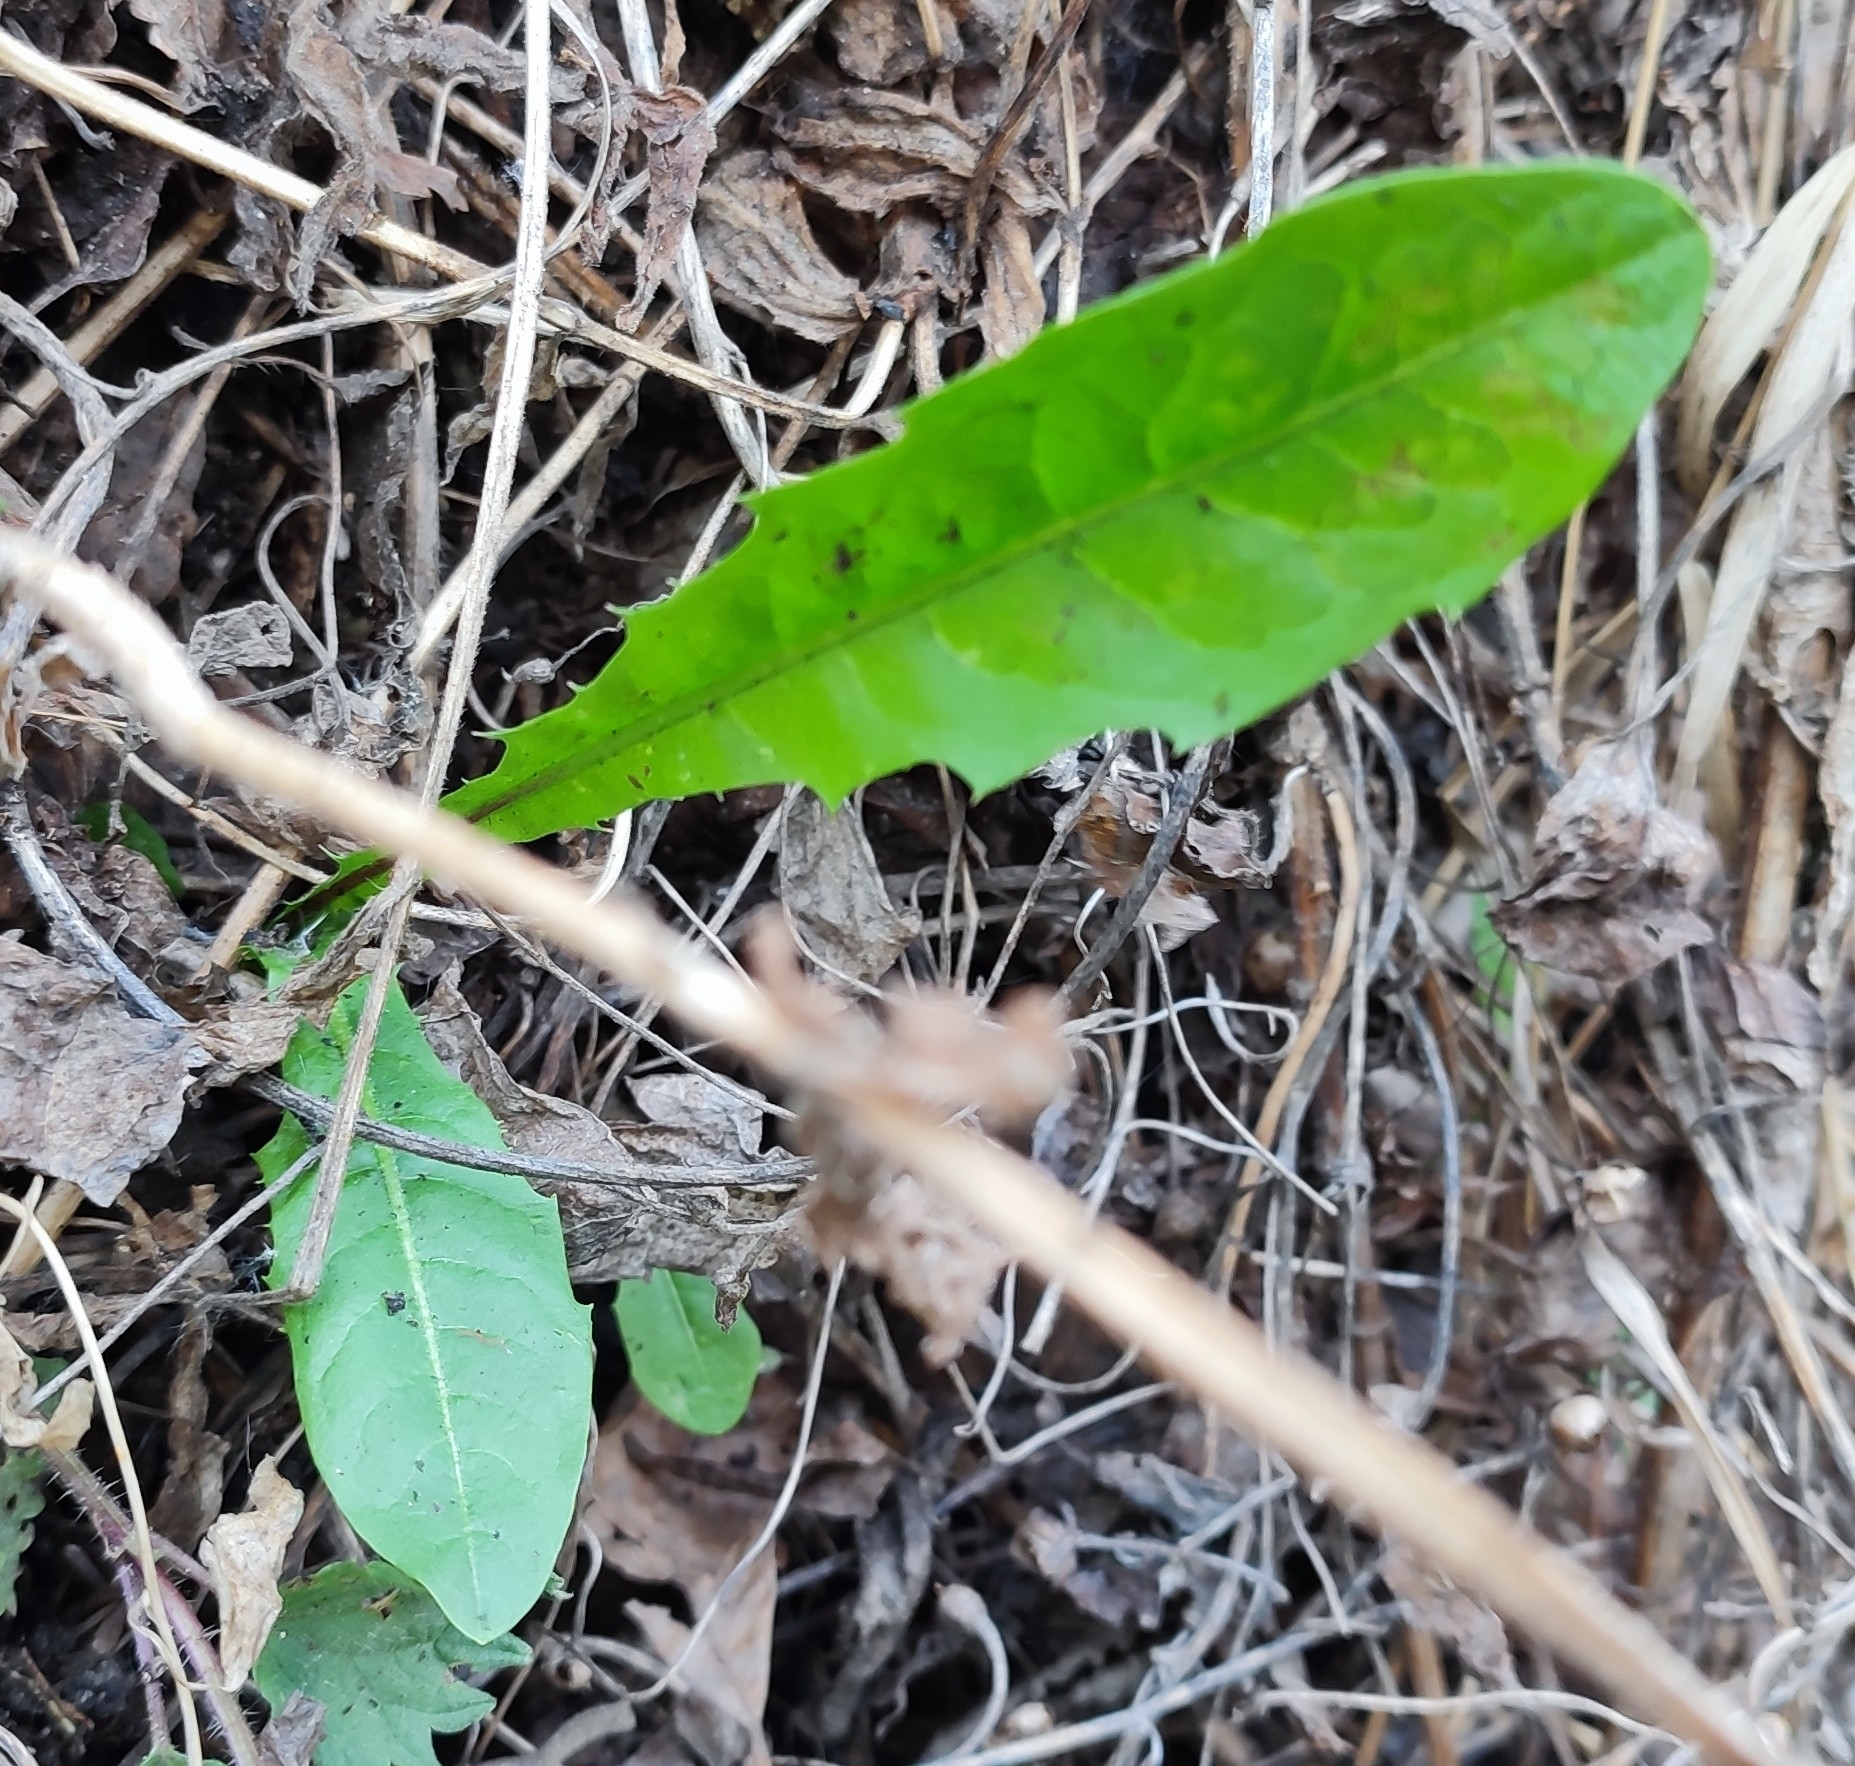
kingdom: Plantae
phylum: Tracheophyta
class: Magnoliopsida
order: Asterales
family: Asteraceae
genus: Taraxacum
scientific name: Taraxacum officinale
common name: Common dandelion
